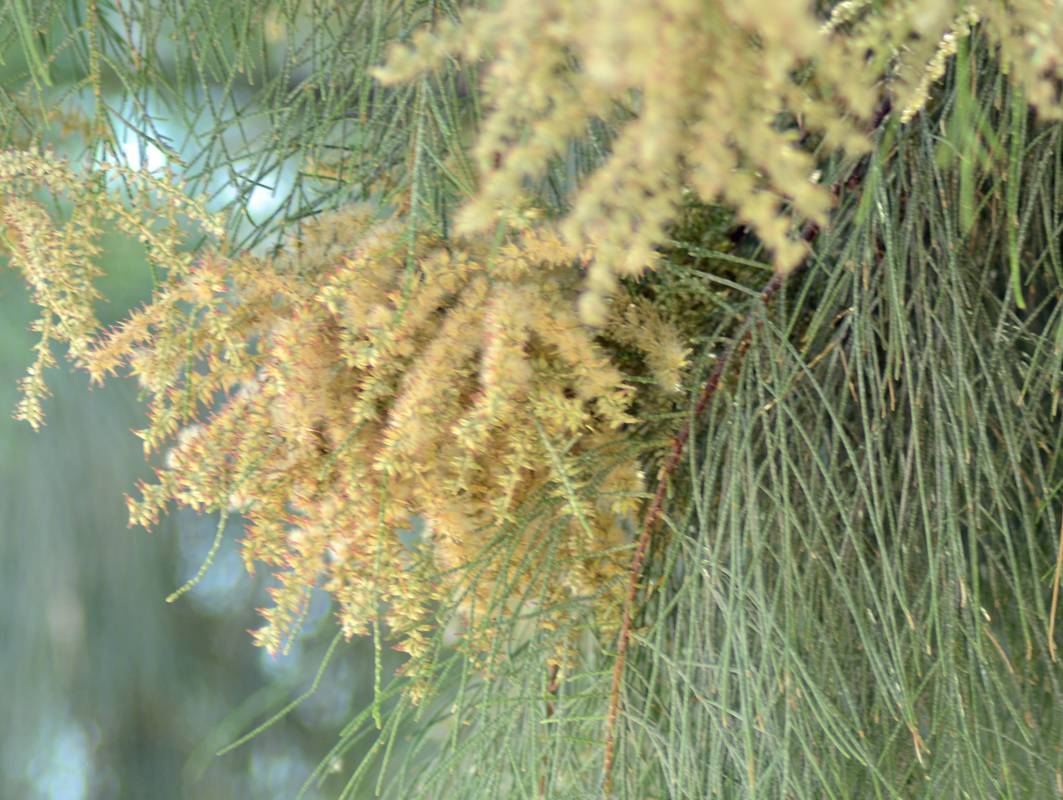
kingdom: Plantae
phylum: Tracheophyta
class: Magnoliopsida
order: Caryophyllales
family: Tamaricaceae
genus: Tamarix
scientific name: Tamarix aphylla
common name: Athel tamarisk
